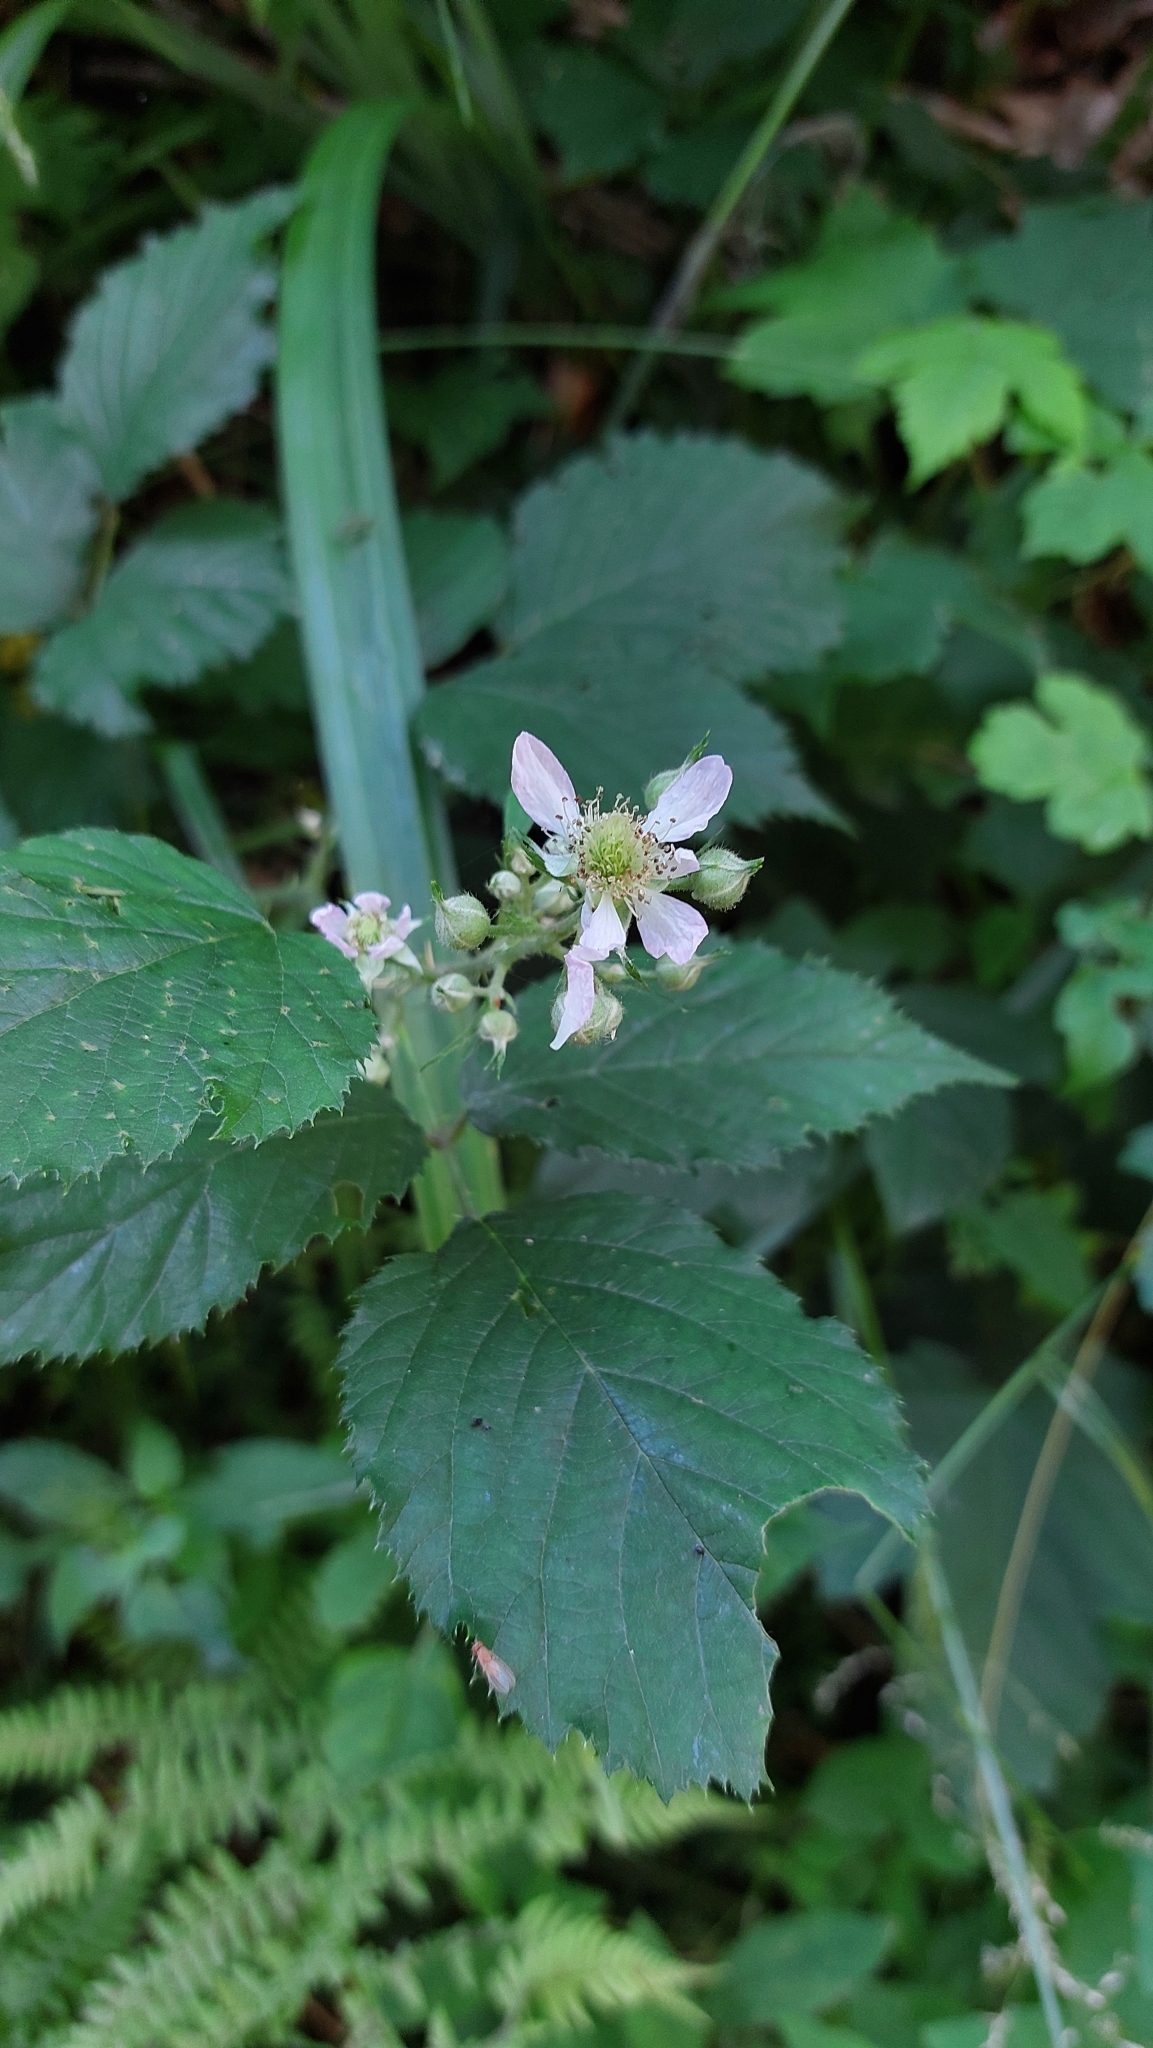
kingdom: Plantae
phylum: Tracheophyta
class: Magnoliopsida
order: Rosales
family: Rosaceae
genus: Rubus
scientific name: Rubus
